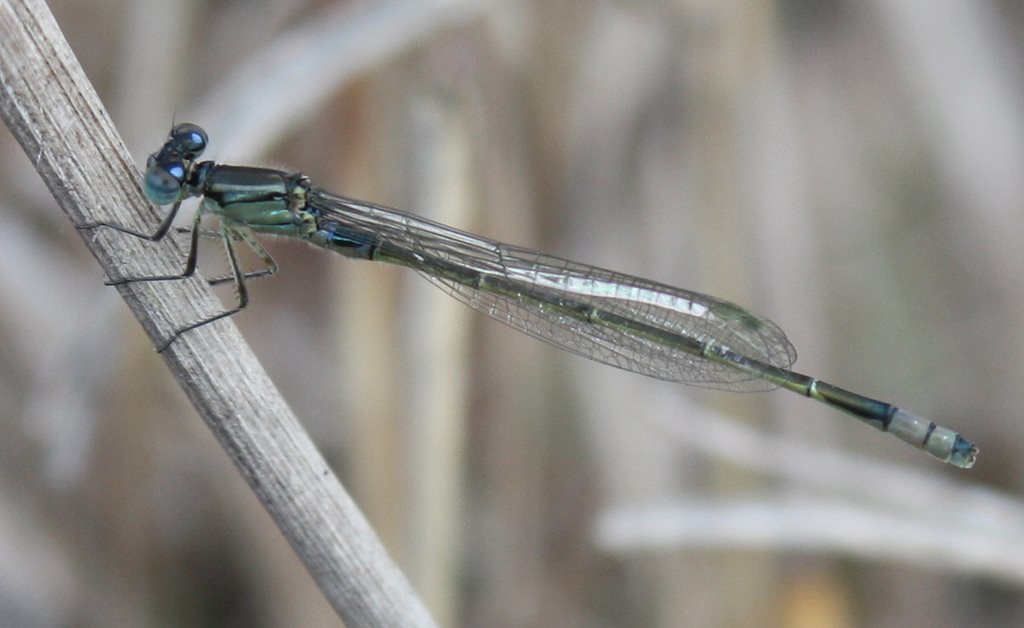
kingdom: Animalia
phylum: Arthropoda
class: Insecta
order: Odonata
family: Coenagrionidae
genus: Ischnura
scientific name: Ischnura heterosticta
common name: Common bluetail
